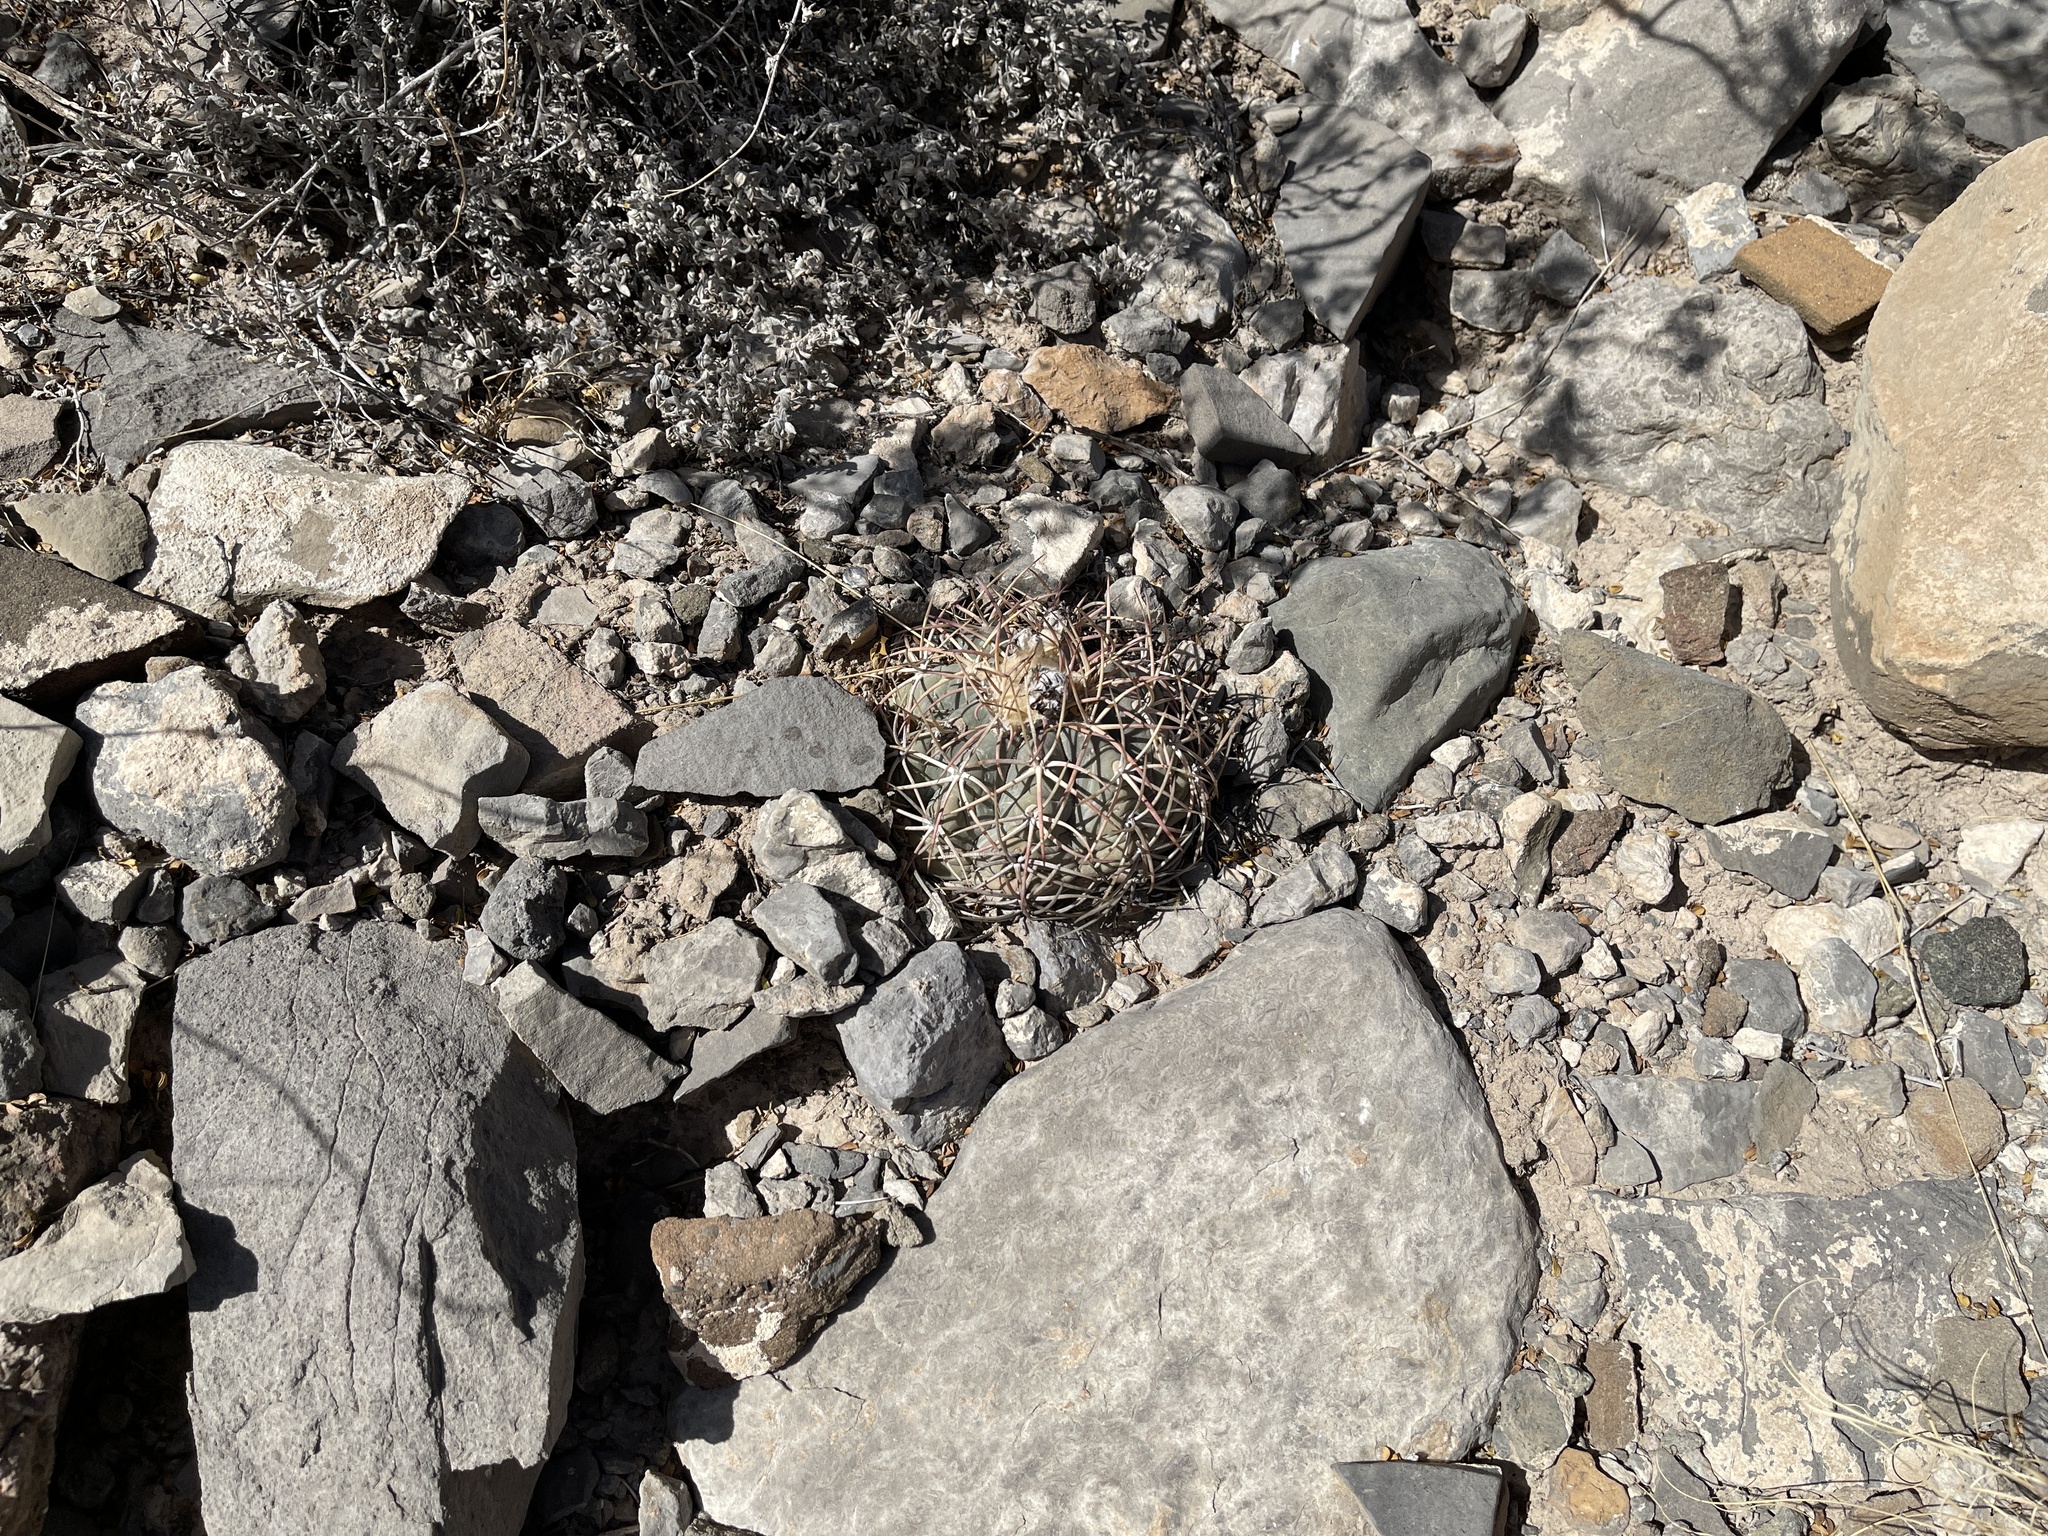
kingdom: Plantae
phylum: Tracheophyta
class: Magnoliopsida
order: Caryophyllales
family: Cactaceae
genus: Echinocactus
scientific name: Echinocactus horizonthalonius
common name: Devilshead
